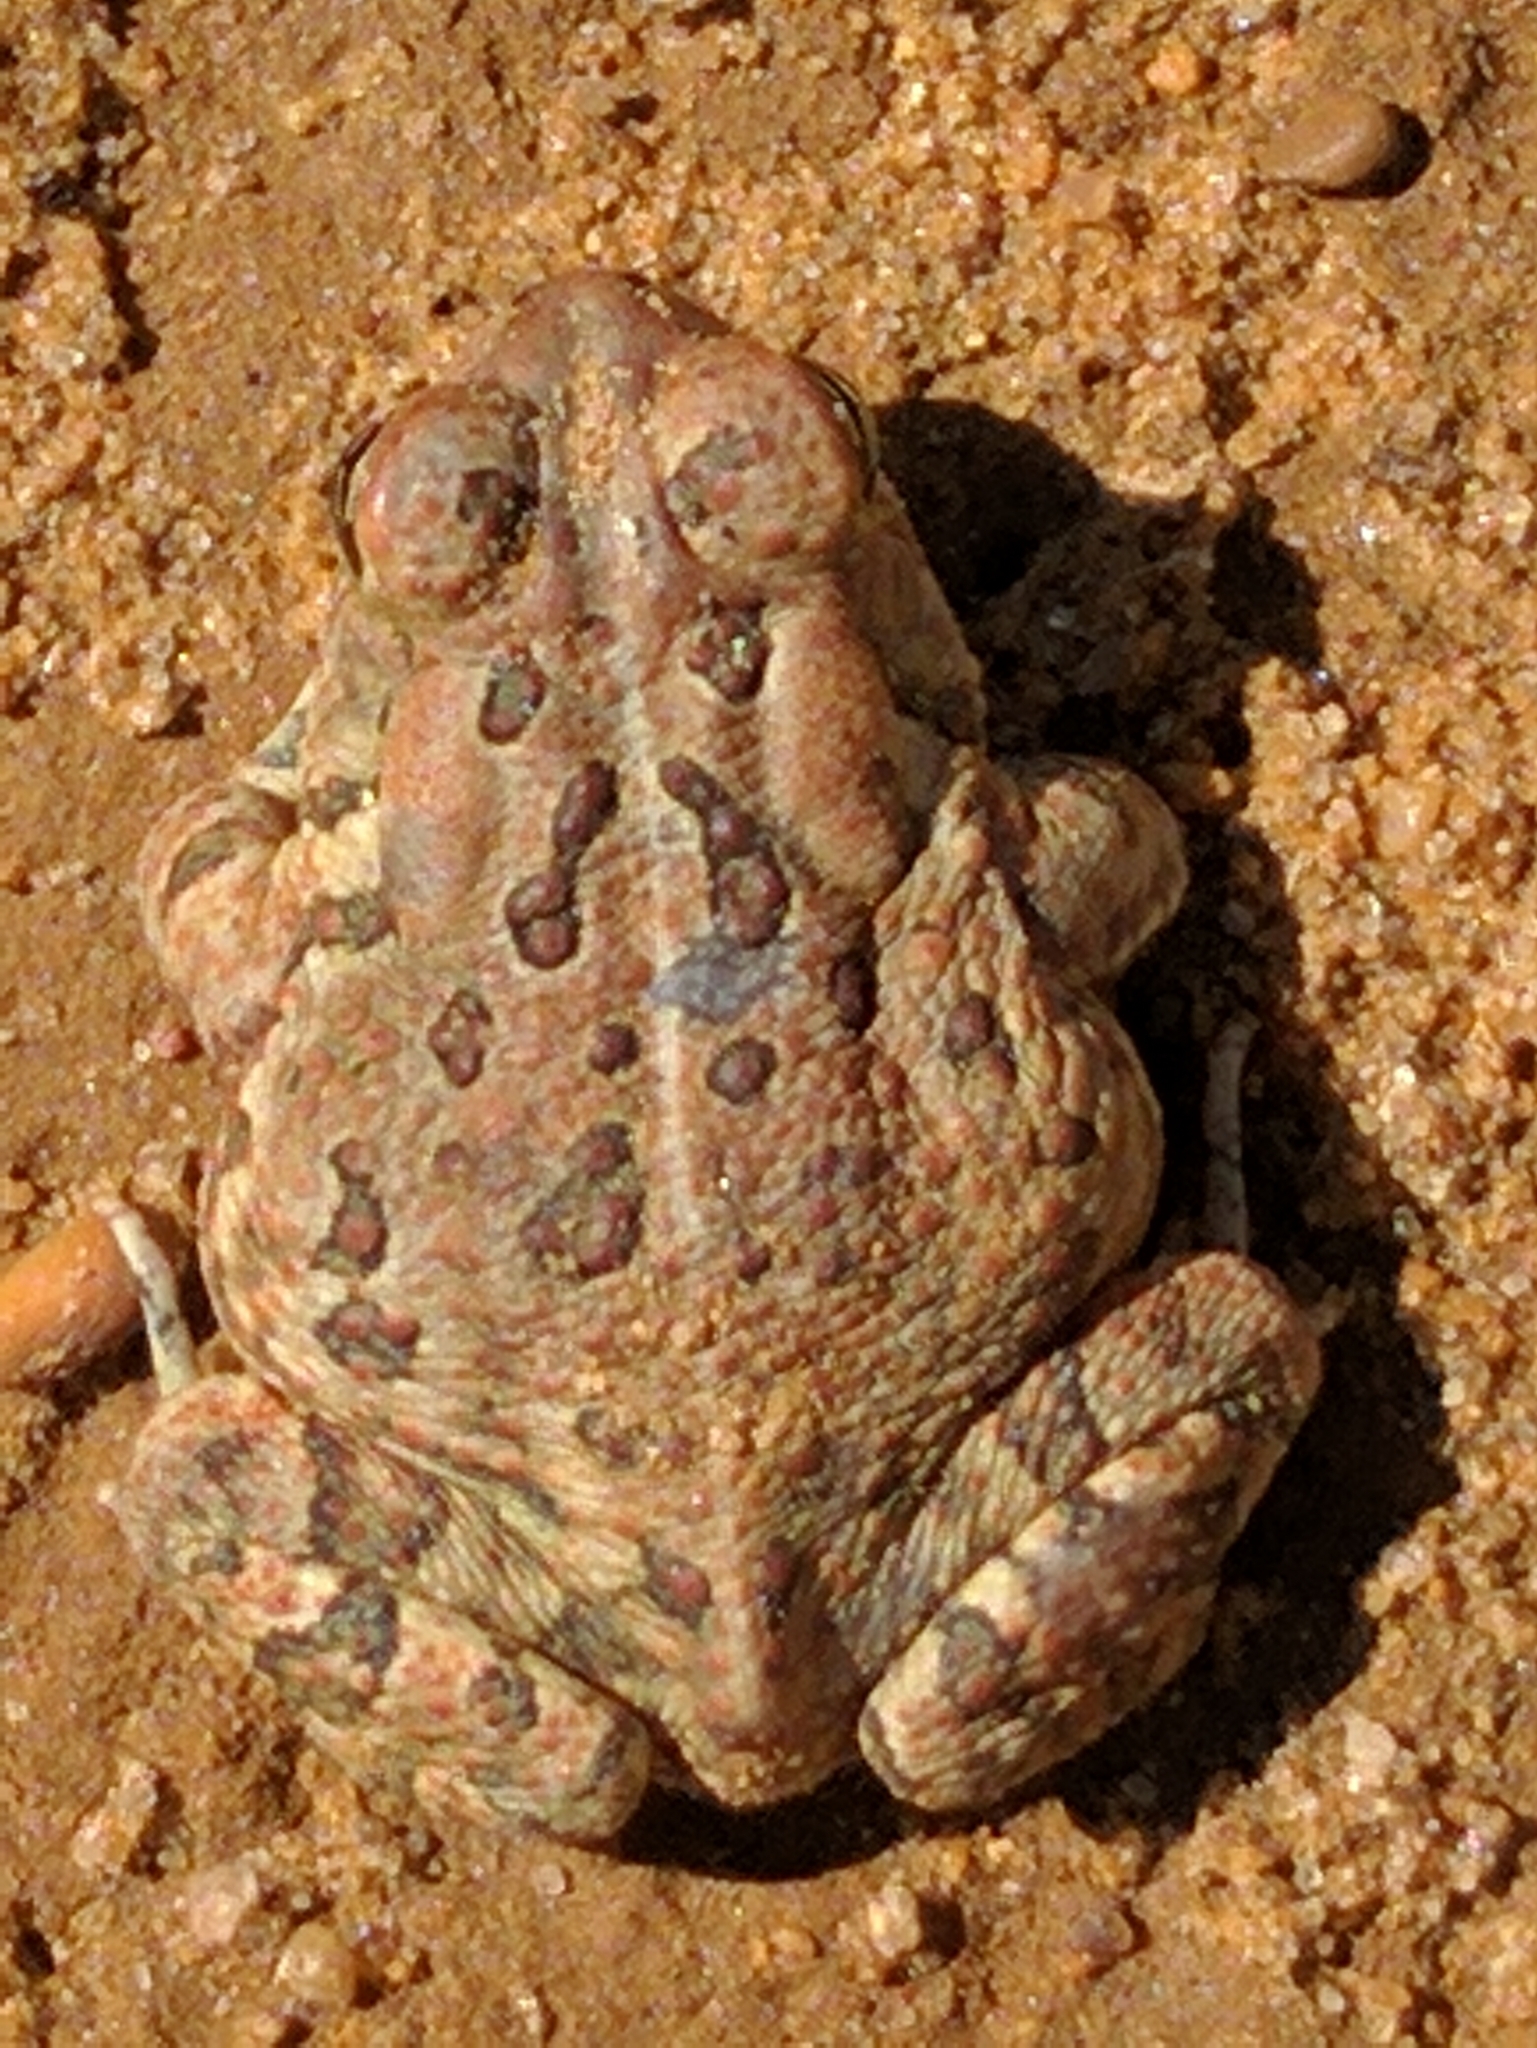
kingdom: Animalia
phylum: Chordata
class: Amphibia
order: Anura
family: Bufonidae
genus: Anaxyrus
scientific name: Anaxyrus fowleri
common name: Fowler's toad
